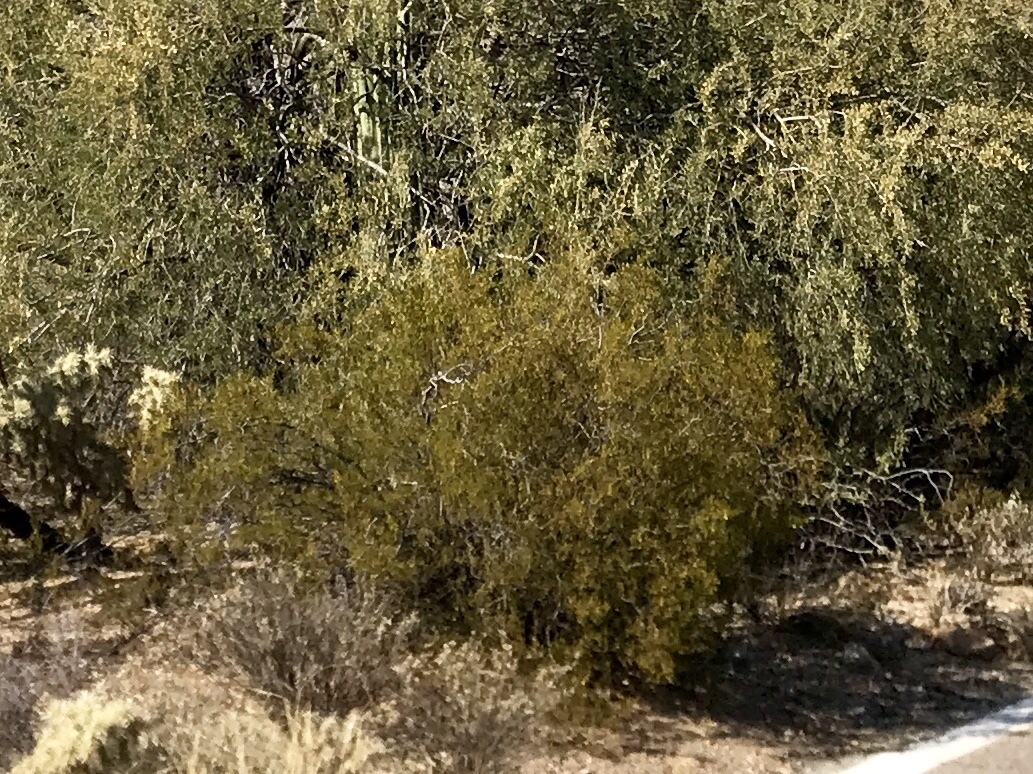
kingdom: Plantae
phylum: Tracheophyta
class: Magnoliopsida
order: Zygophyllales
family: Zygophyllaceae
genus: Larrea
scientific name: Larrea tridentata
